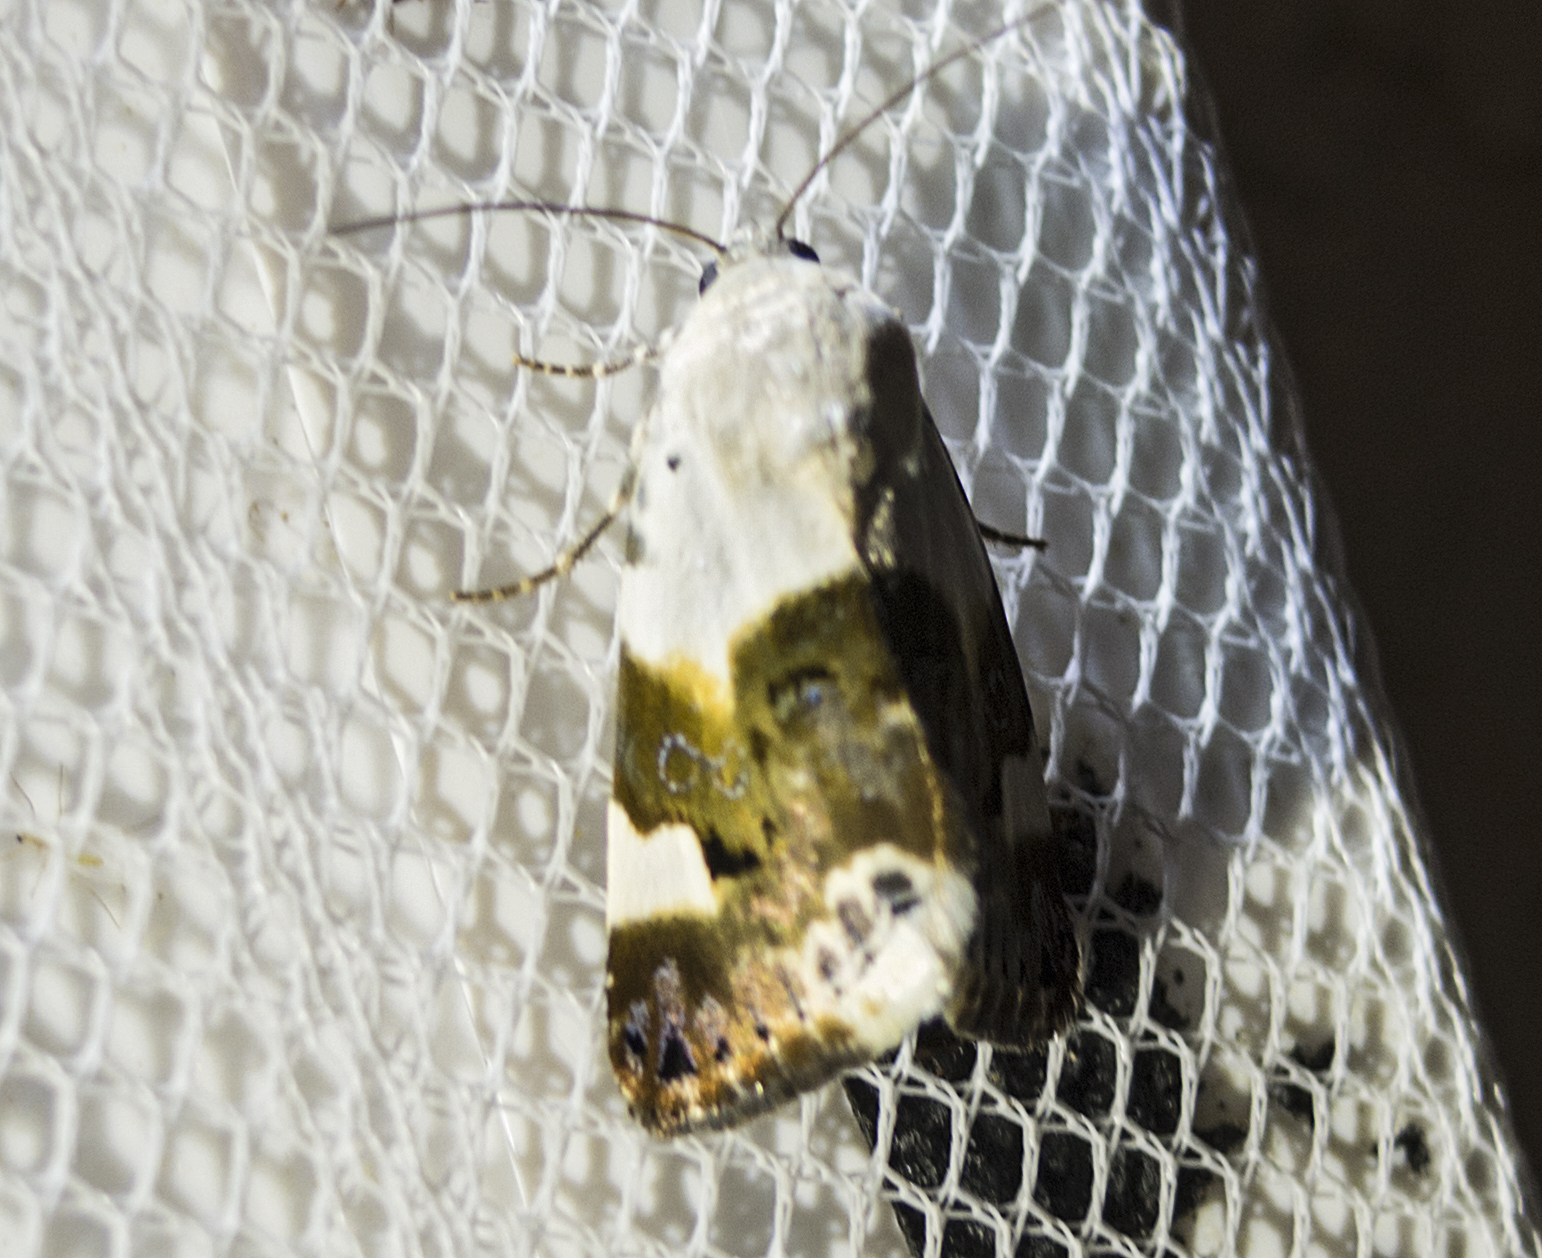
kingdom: Animalia
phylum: Arthropoda
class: Insecta
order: Lepidoptera
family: Noctuidae
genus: Acontia
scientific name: Acontia lucida
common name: Pale shoulder
